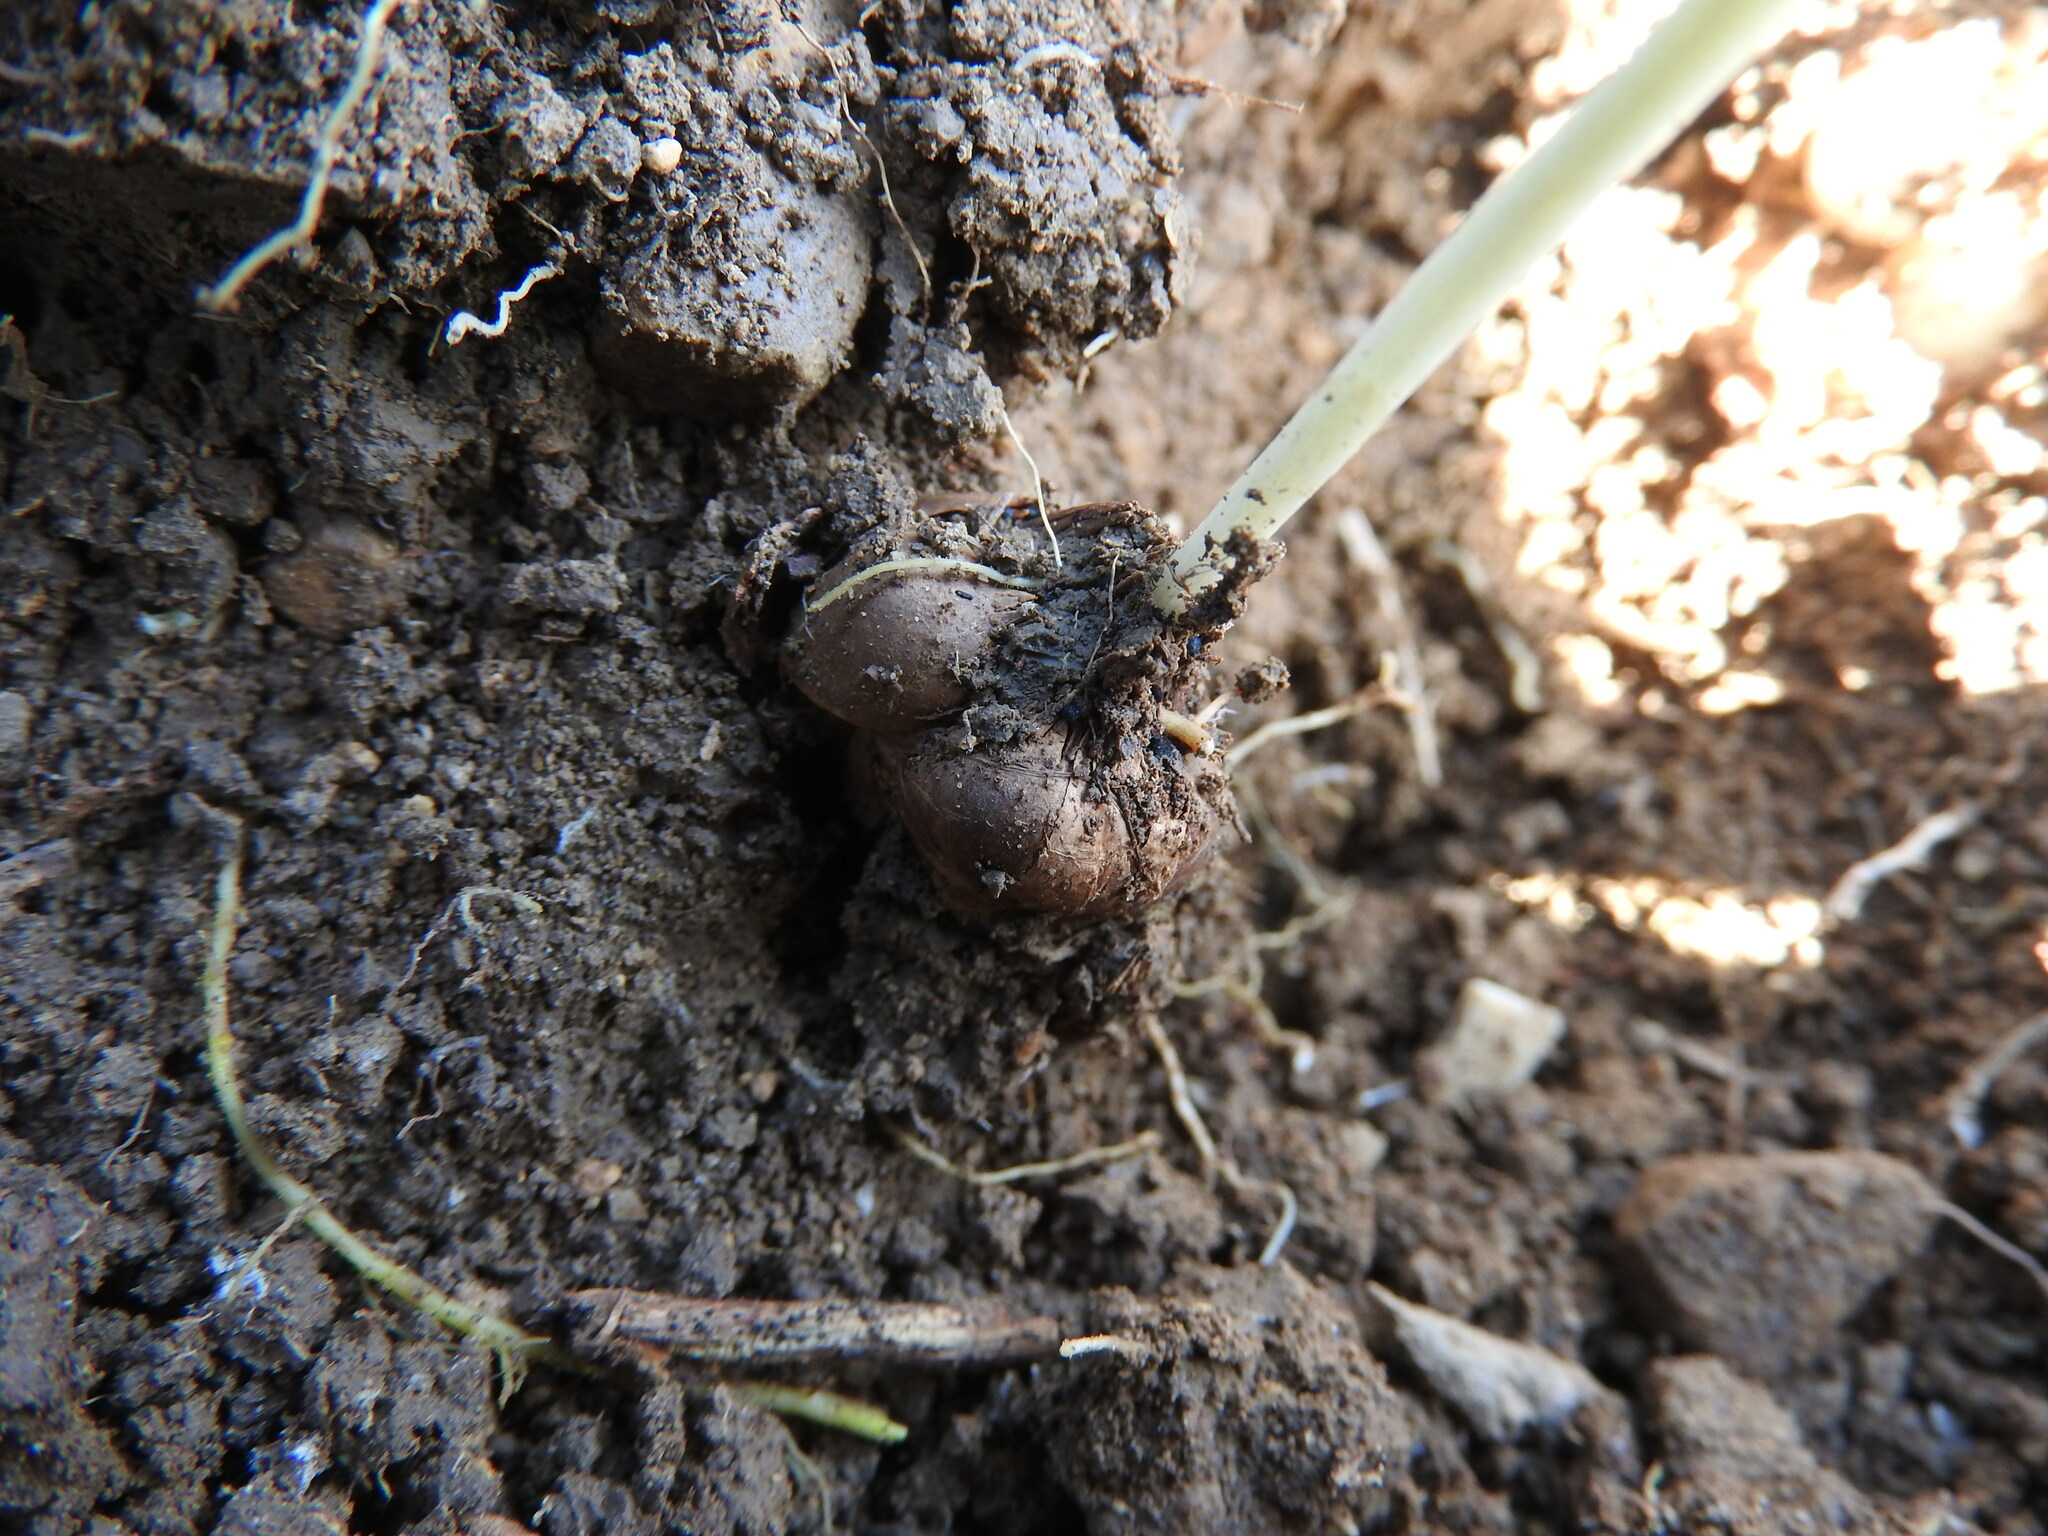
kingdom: Plantae
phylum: Tracheophyta
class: Liliopsida
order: Asparagales
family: Iridaceae
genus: Romulea
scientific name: Romulea ramiflora
